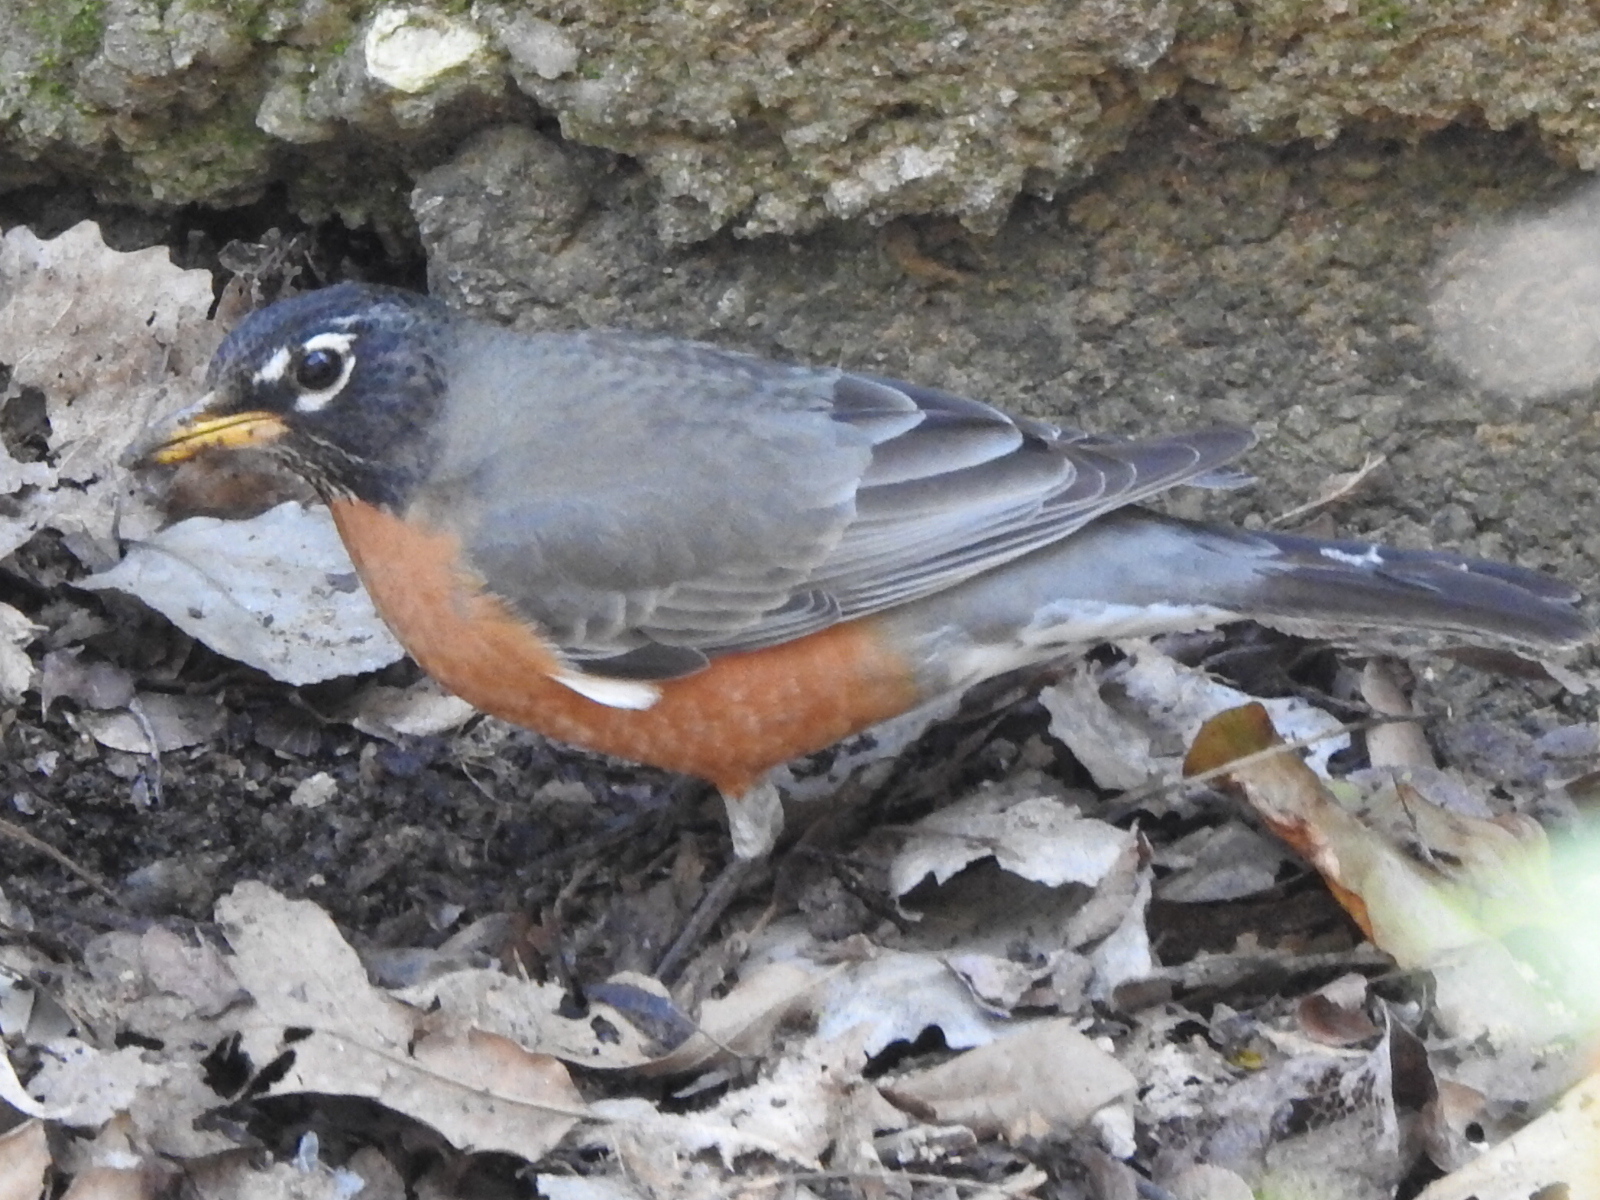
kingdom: Animalia
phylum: Chordata
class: Aves
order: Passeriformes
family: Turdidae
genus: Turdus
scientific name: Turdus migratorius
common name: American robin
